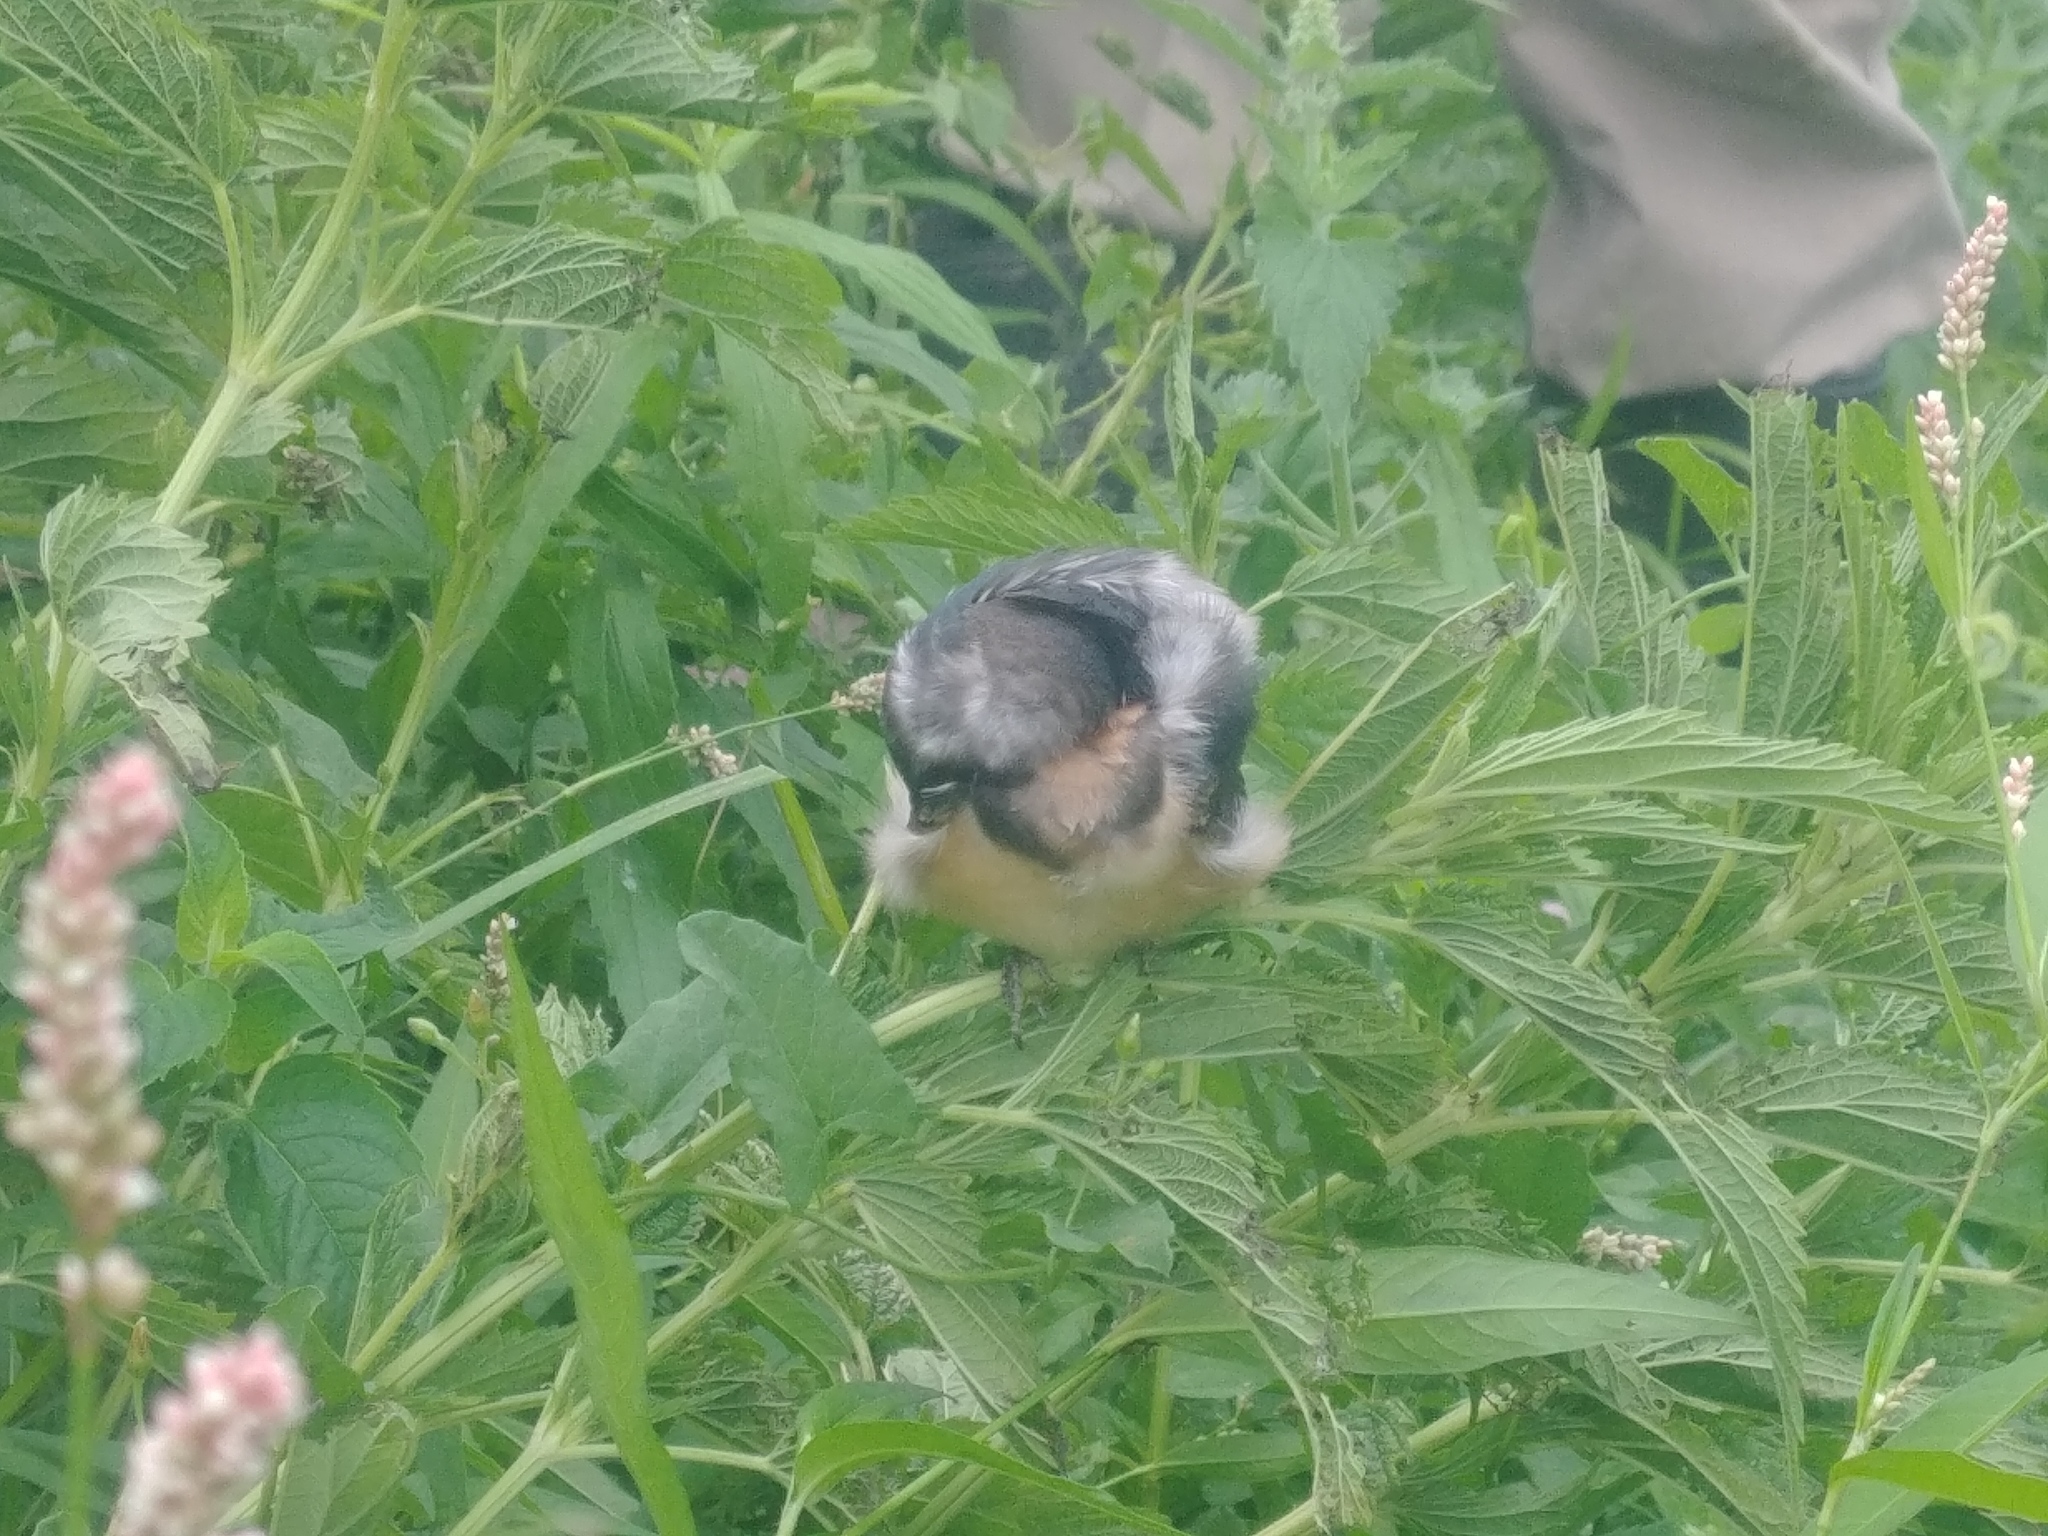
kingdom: Animalia
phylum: Chordata
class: Aves
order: Passeriformes
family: Hirundinidae
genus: Hirundo
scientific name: Hirundo rustica
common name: Barn swallow
